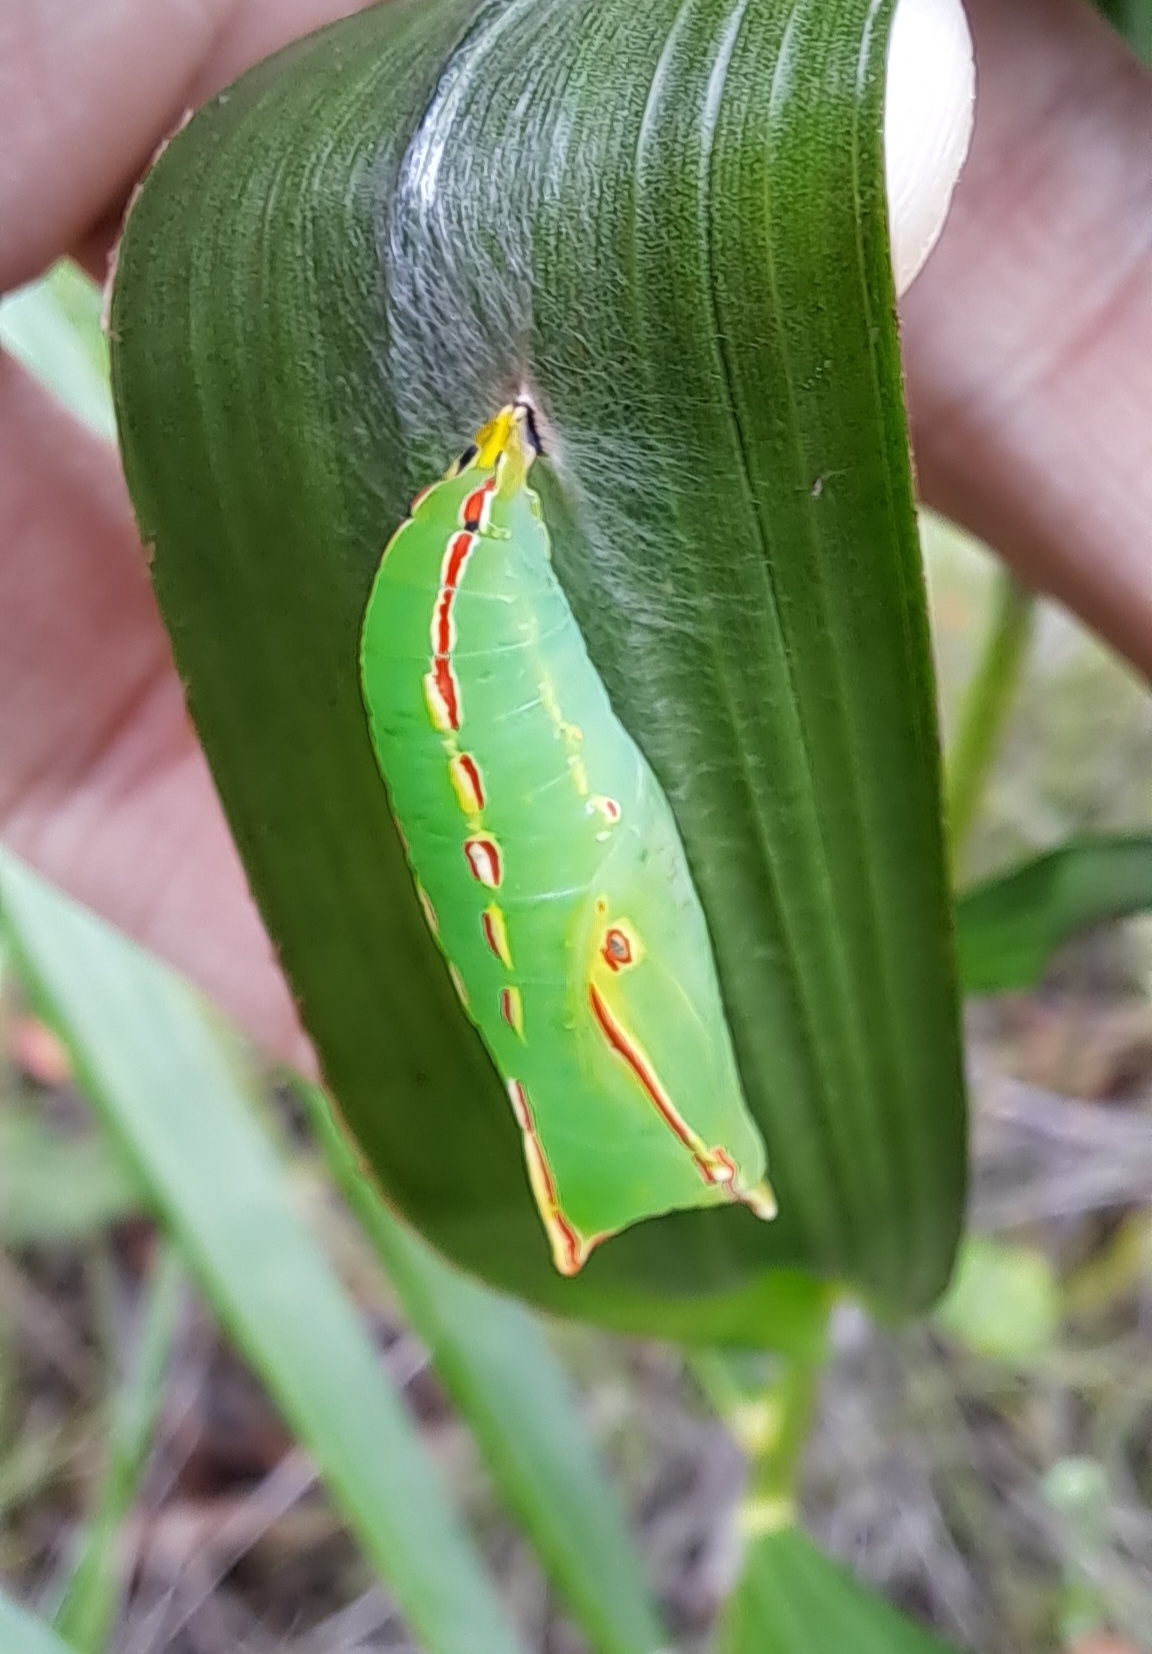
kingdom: Animalia
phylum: Arthropoda
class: Insecta
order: Lepidoptera
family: Nymphalidae
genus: Elymnias
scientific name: Elymnias hypermnestra
